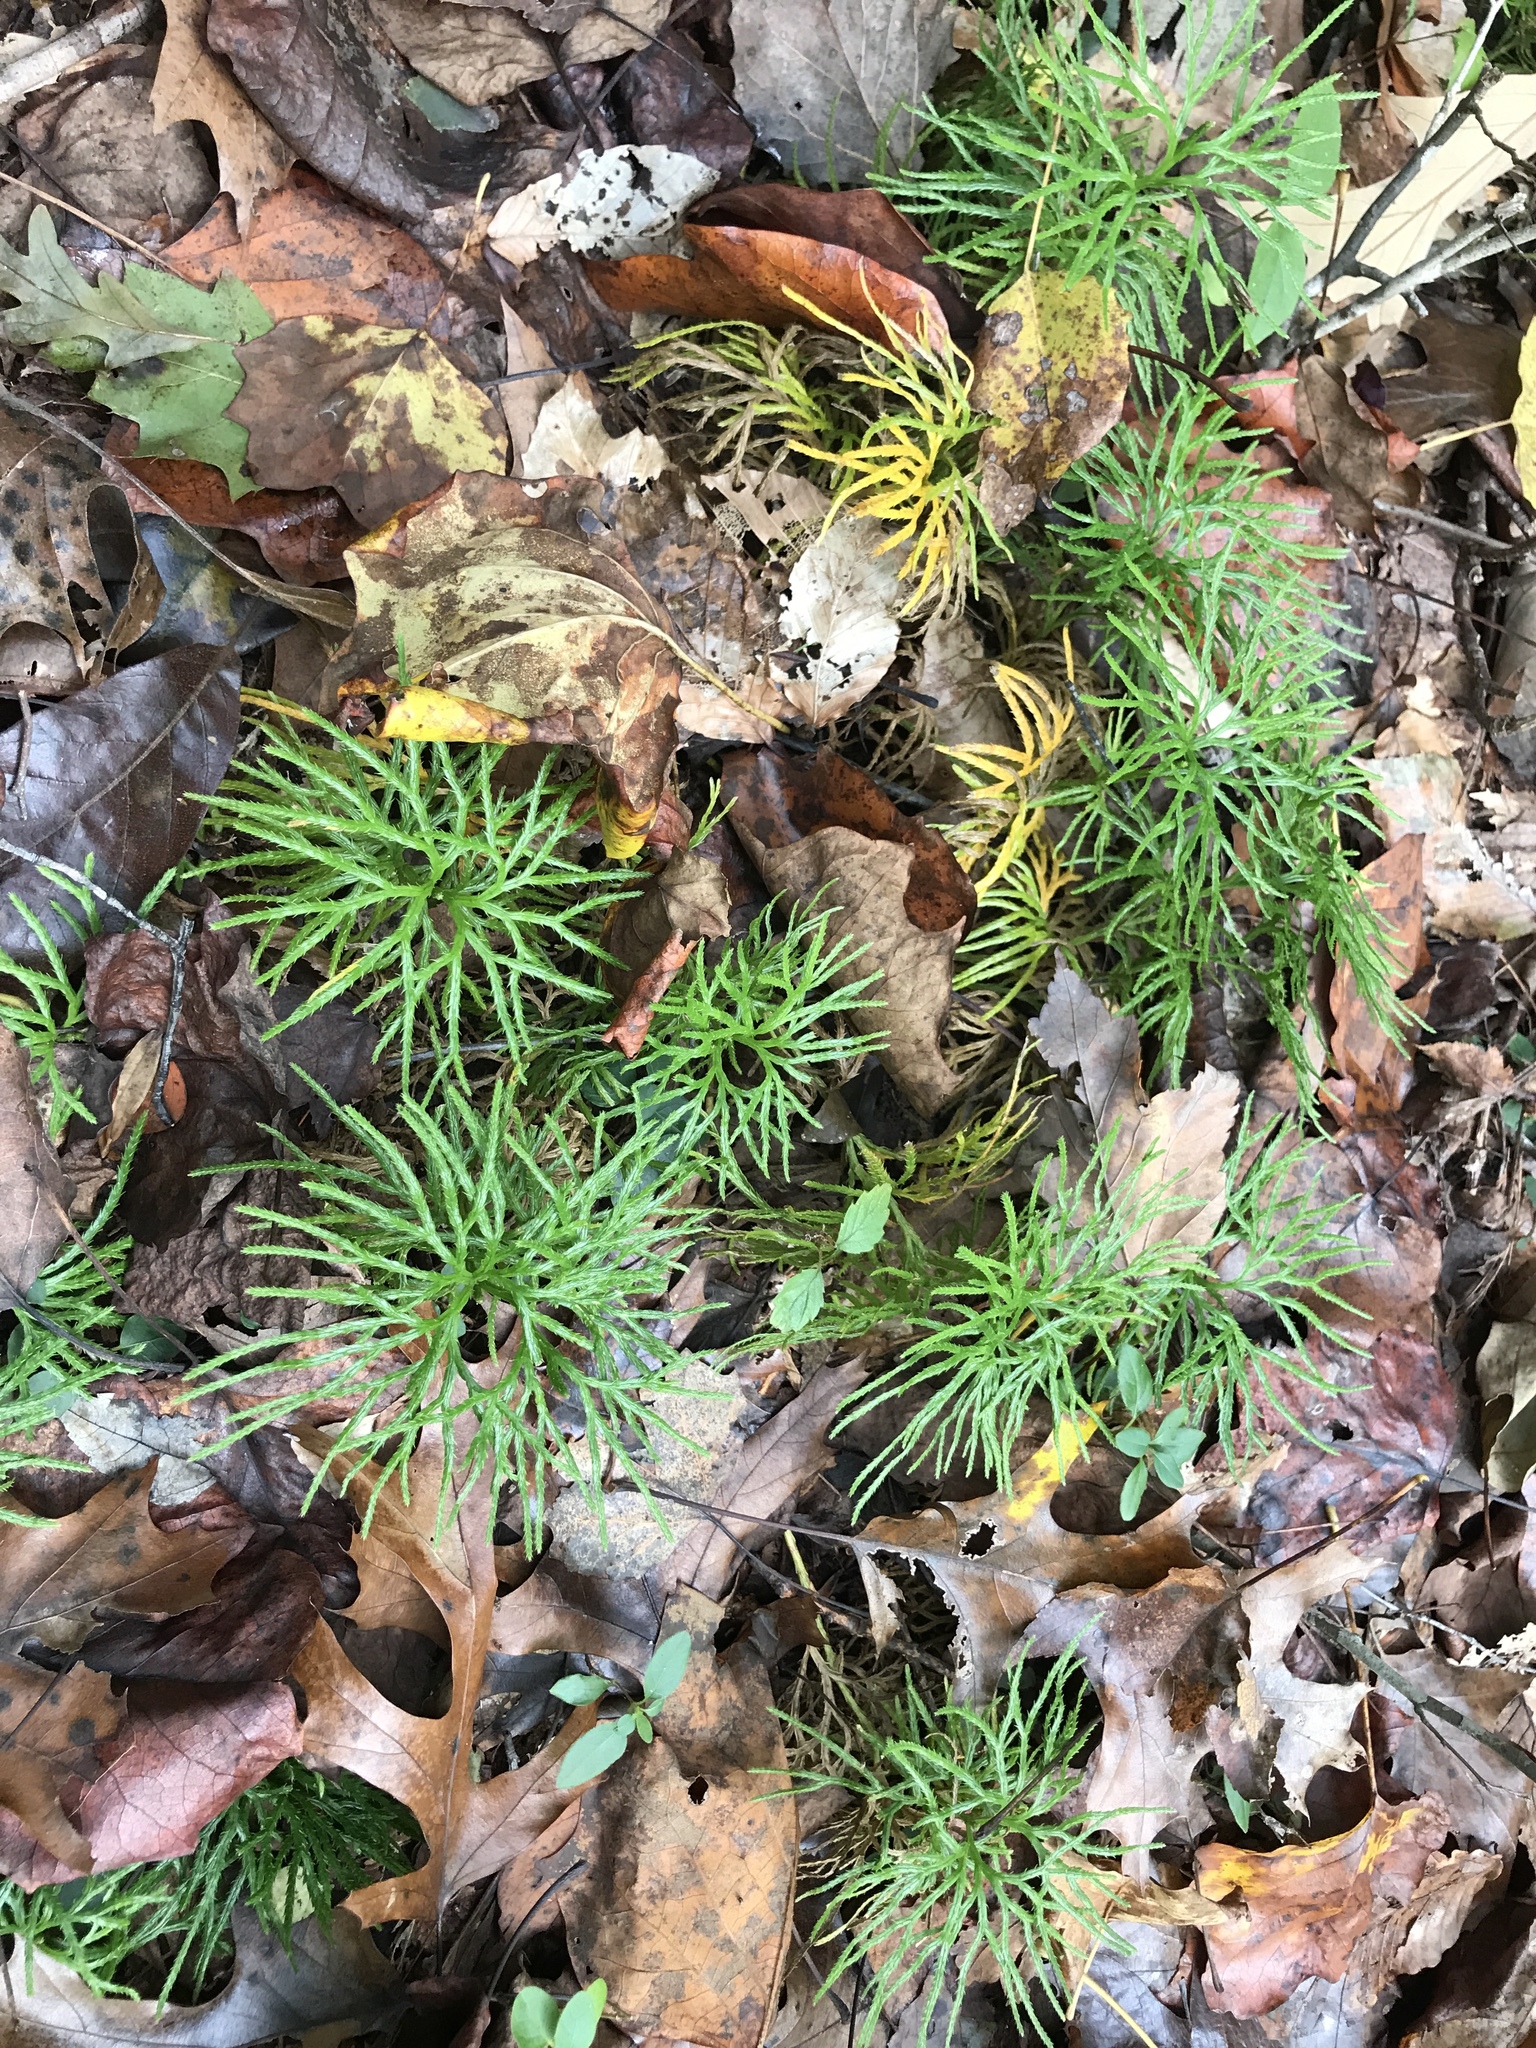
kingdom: Plantae
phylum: Tracheophyta
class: Lycopodiopsida
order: Lycopodiales
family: Lycopodiaceae
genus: Diphasiastrum
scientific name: Diphasiastrum digitatum
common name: Southern running-pine
